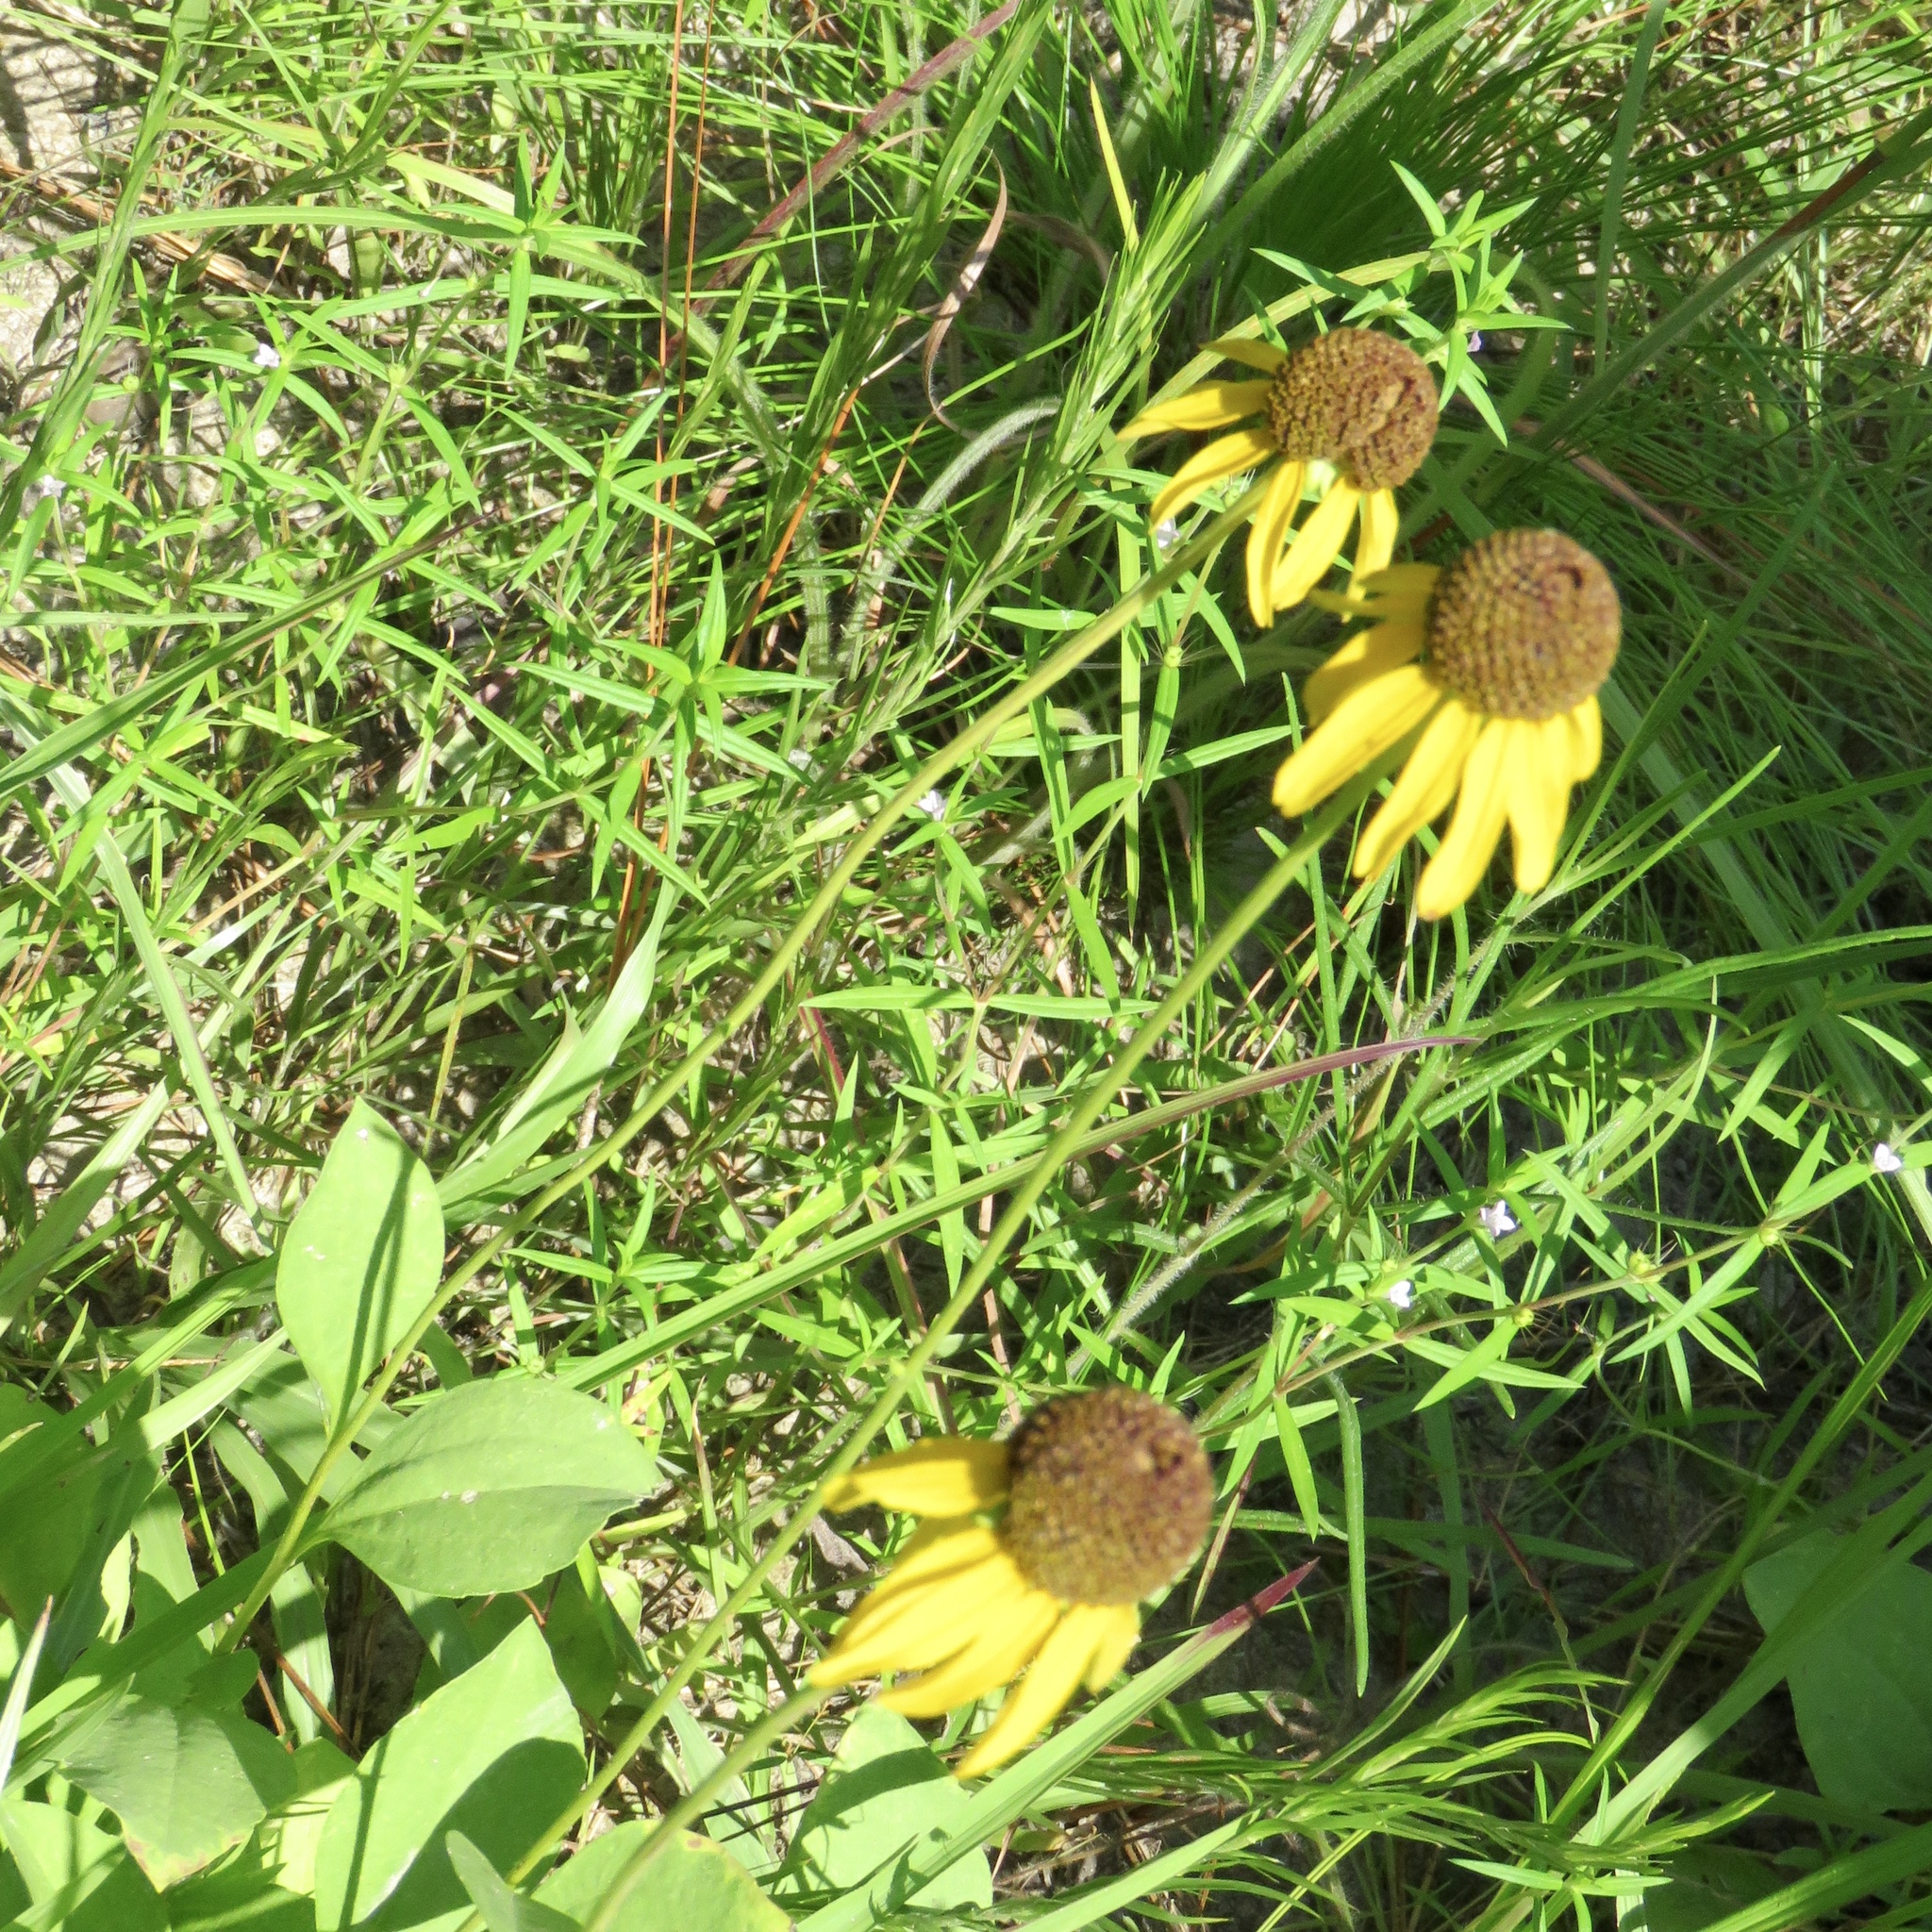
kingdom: Plantae
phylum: Tracheophyta
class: Magnoliopsida
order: Asterales
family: Asteraceae
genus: Rudbeckia
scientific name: Rudbeckia grandiflora
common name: Large-flowered coneflower
